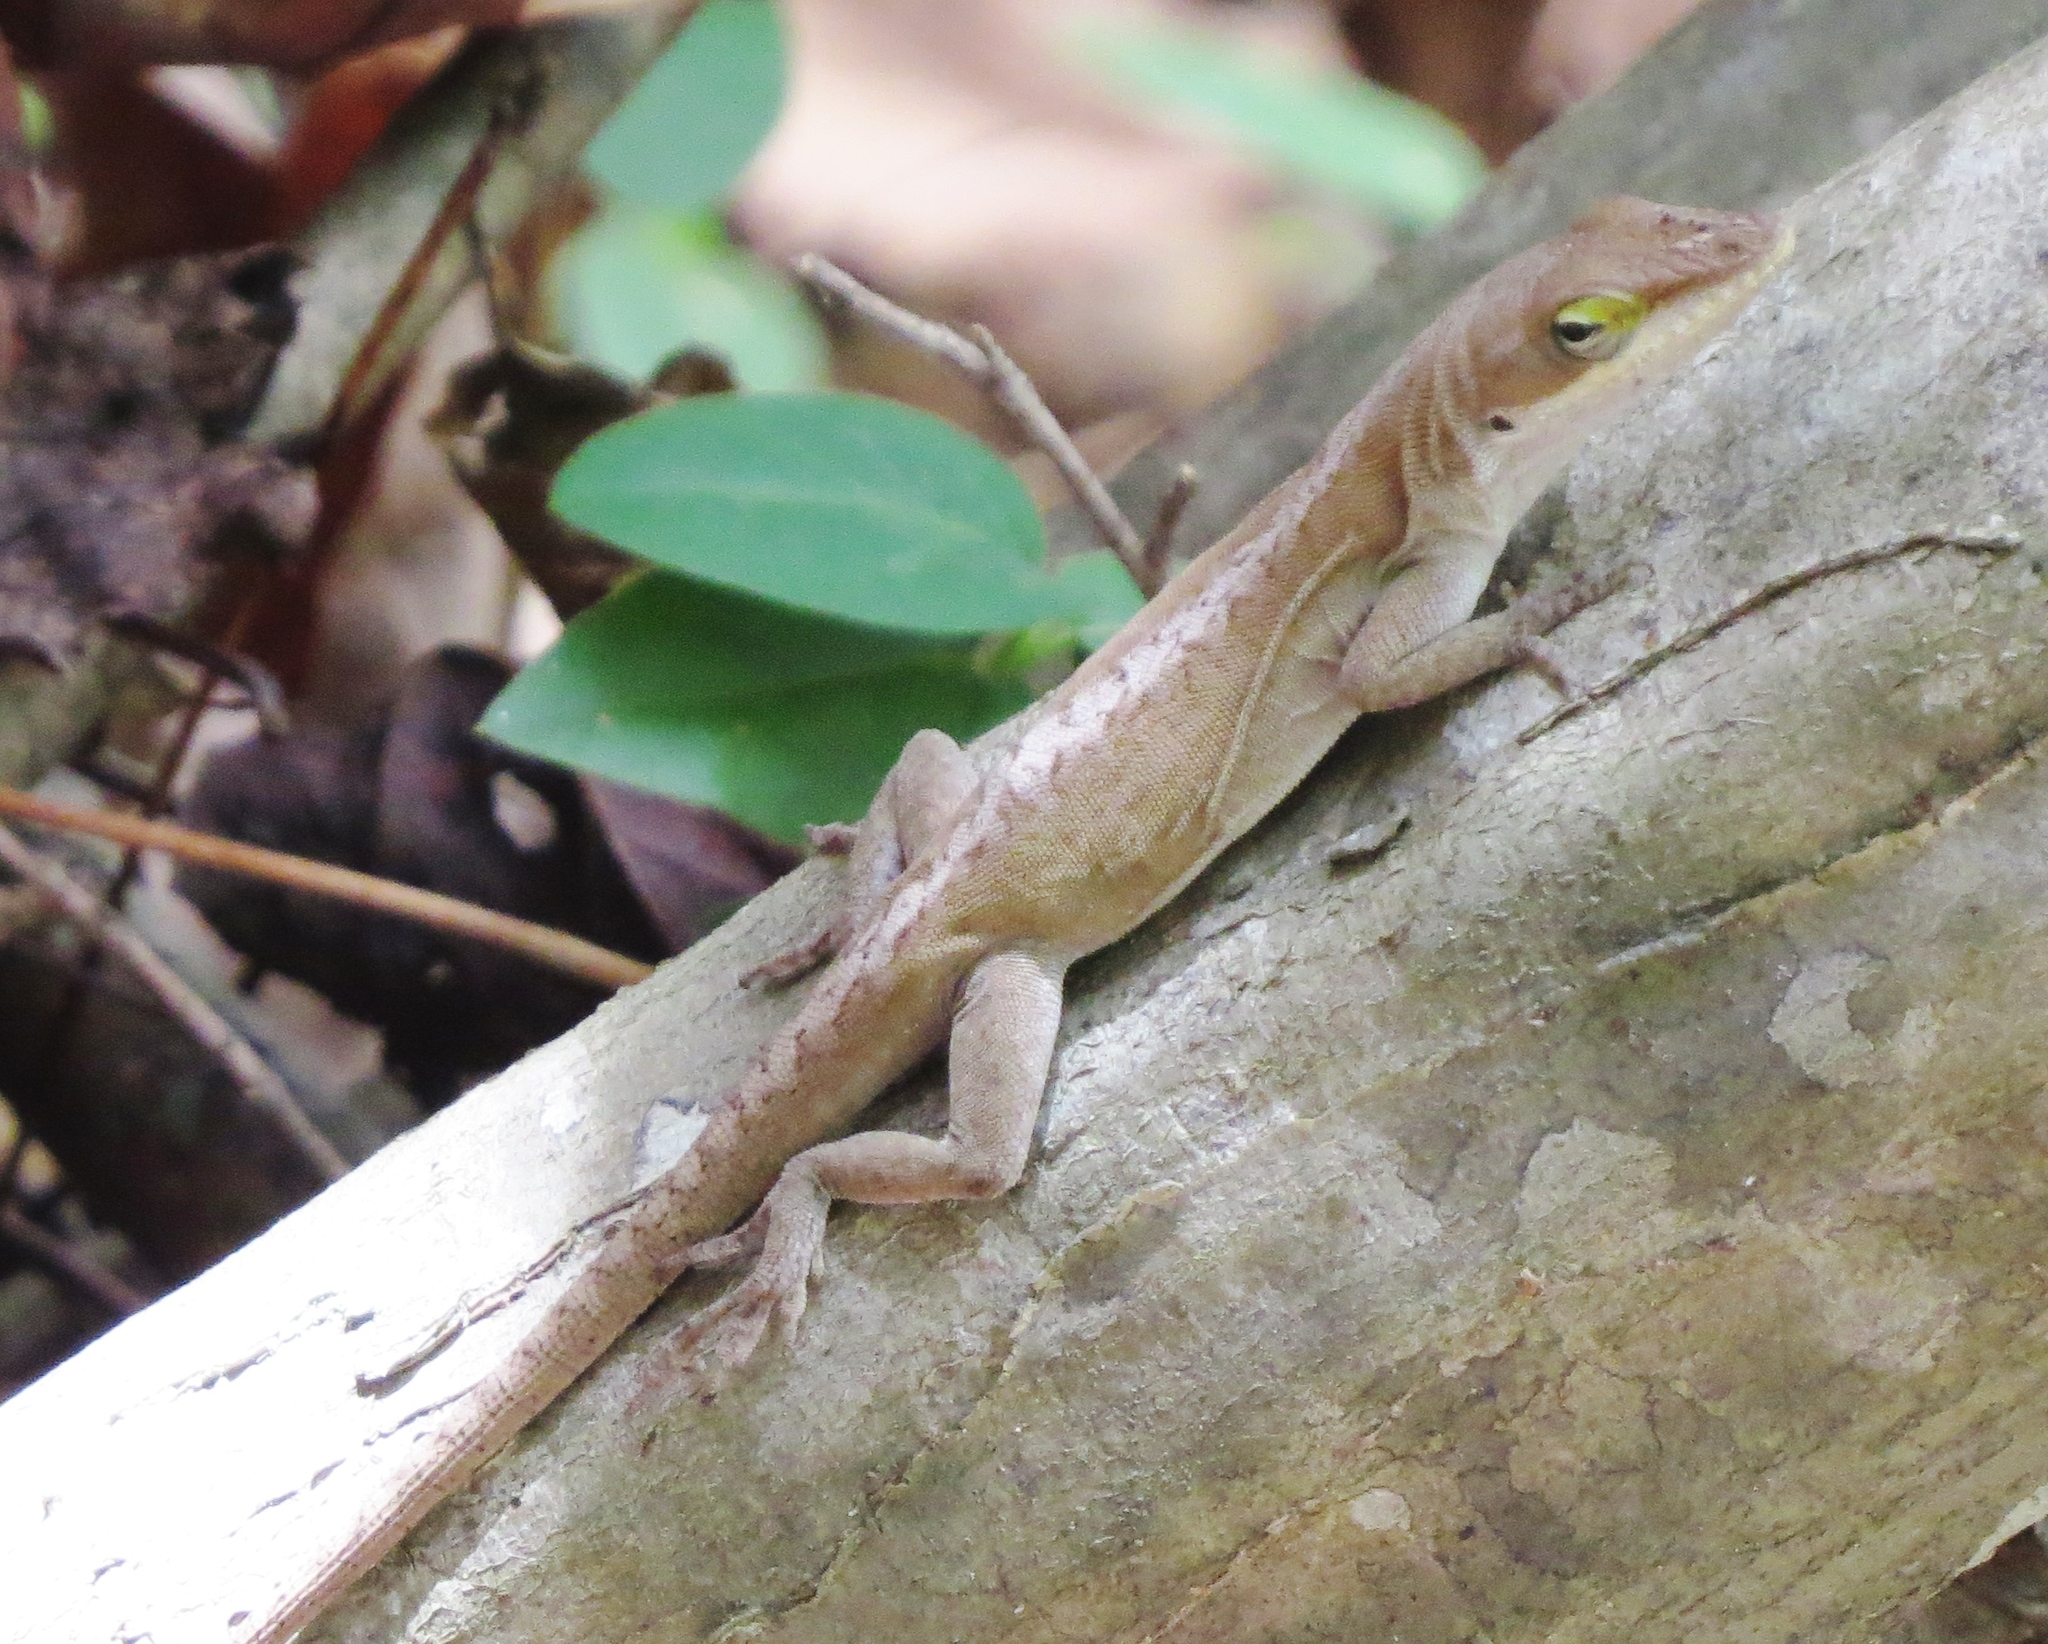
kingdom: Animalia
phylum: Chordata
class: Squamata
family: Dactyloidae
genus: Anolis
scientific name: Anolis carolinensis
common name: Green anole
